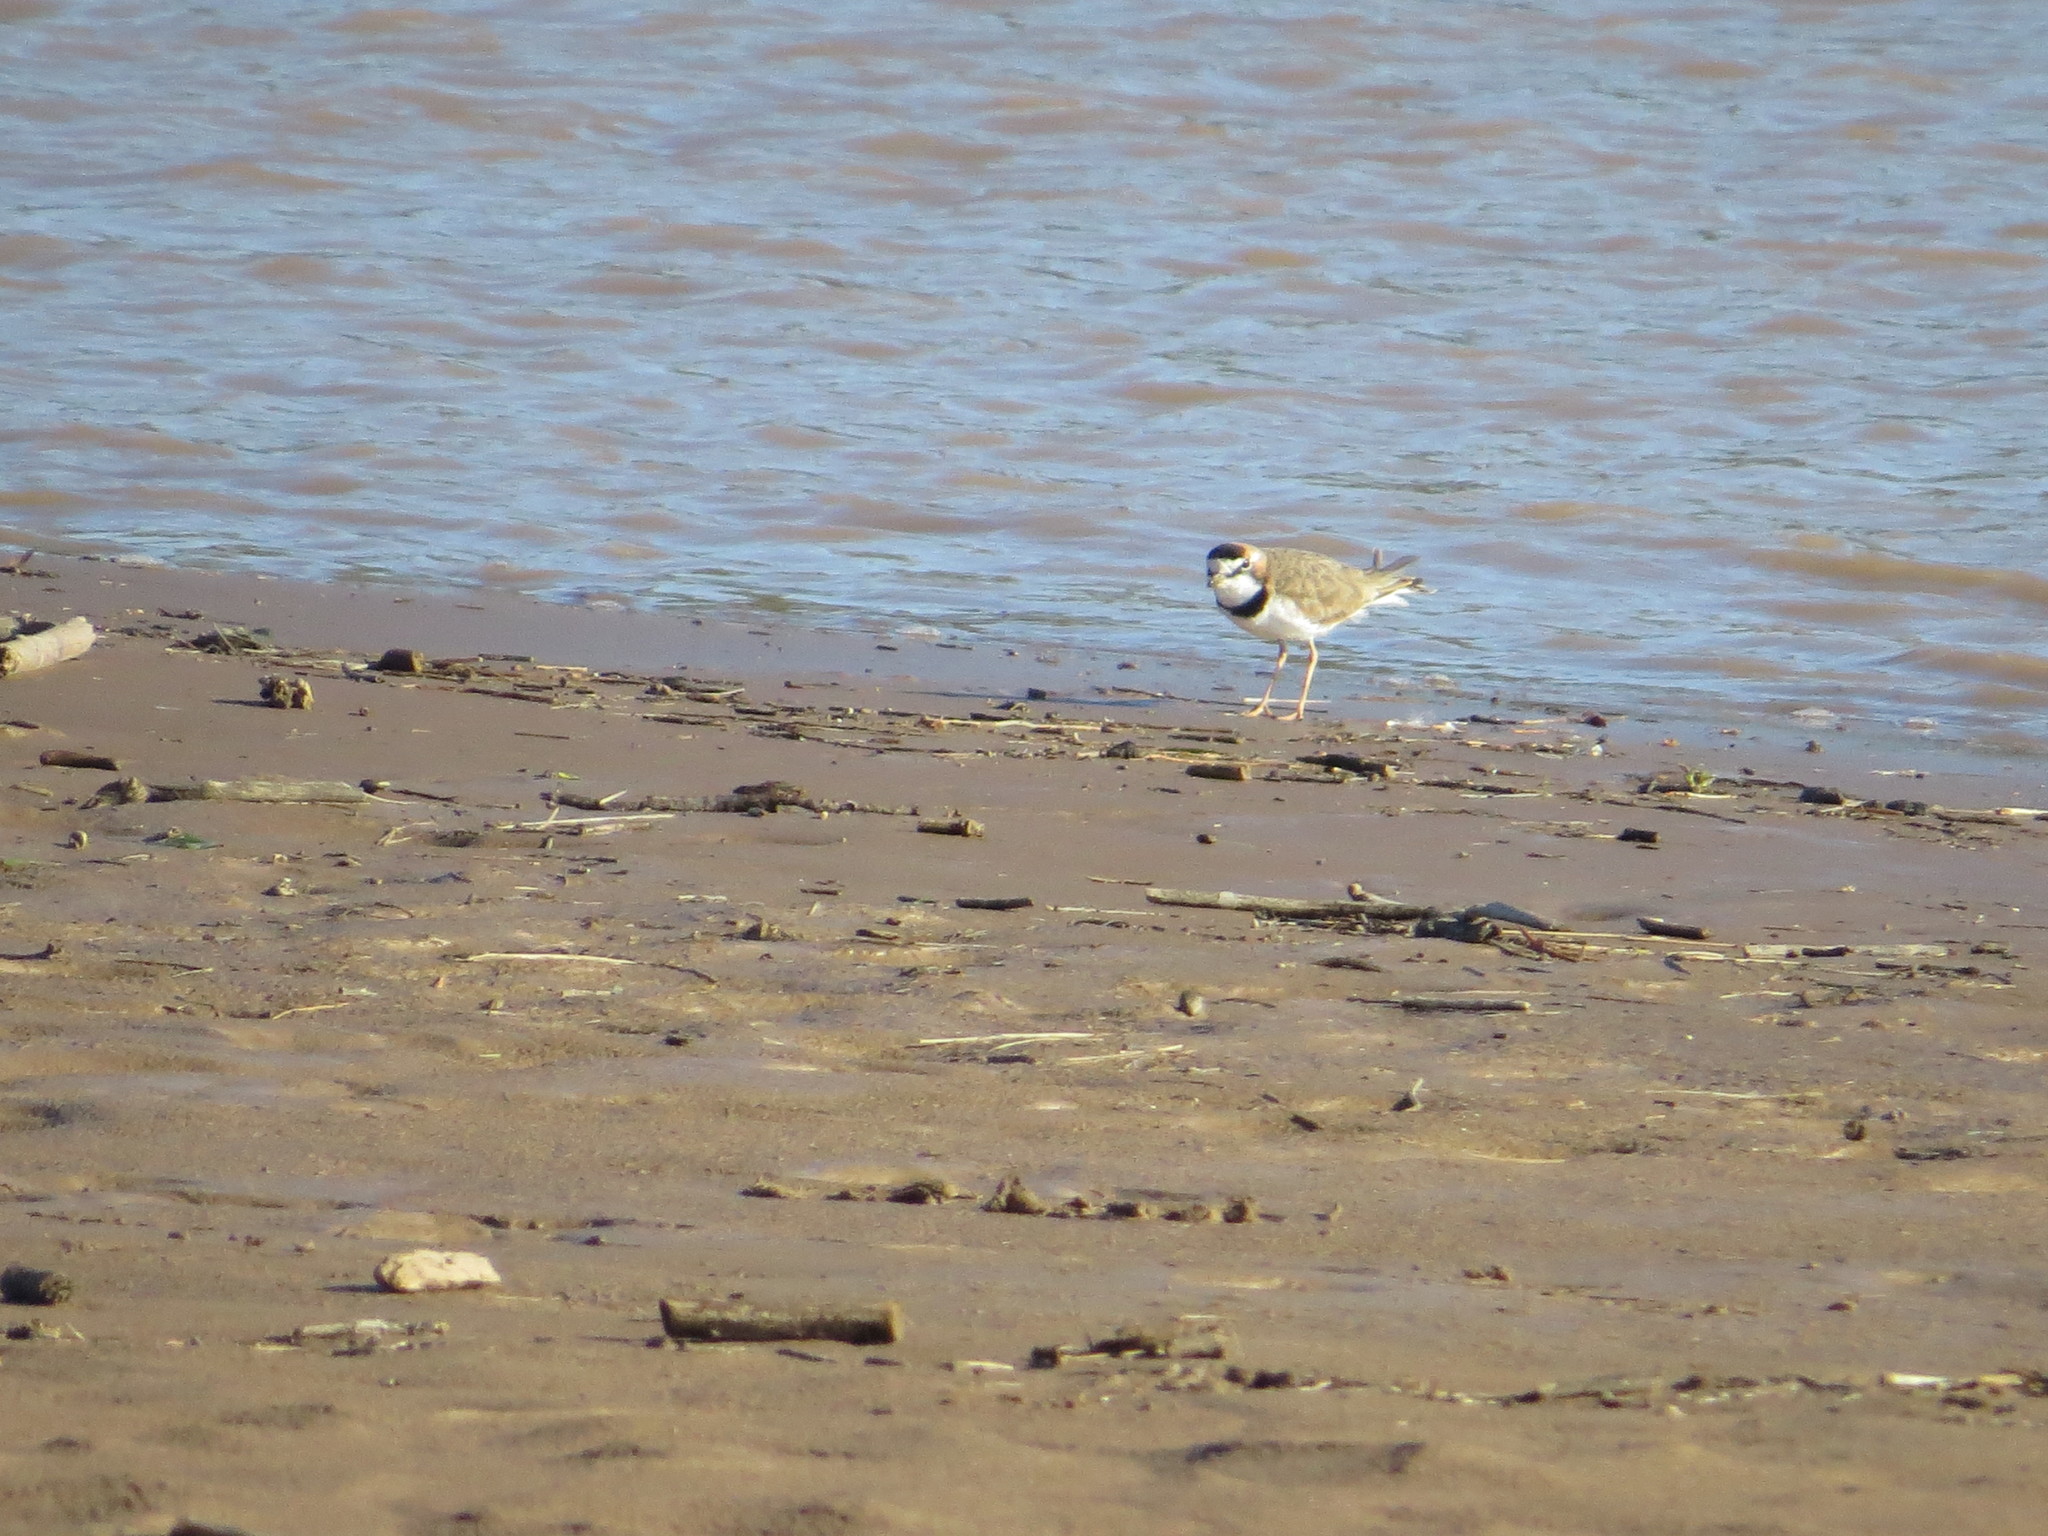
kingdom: Animalia
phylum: Chordata
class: Aves
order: Charadriiformes
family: Charadriidae
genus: Anarhynchus
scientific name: Anarhynchus
